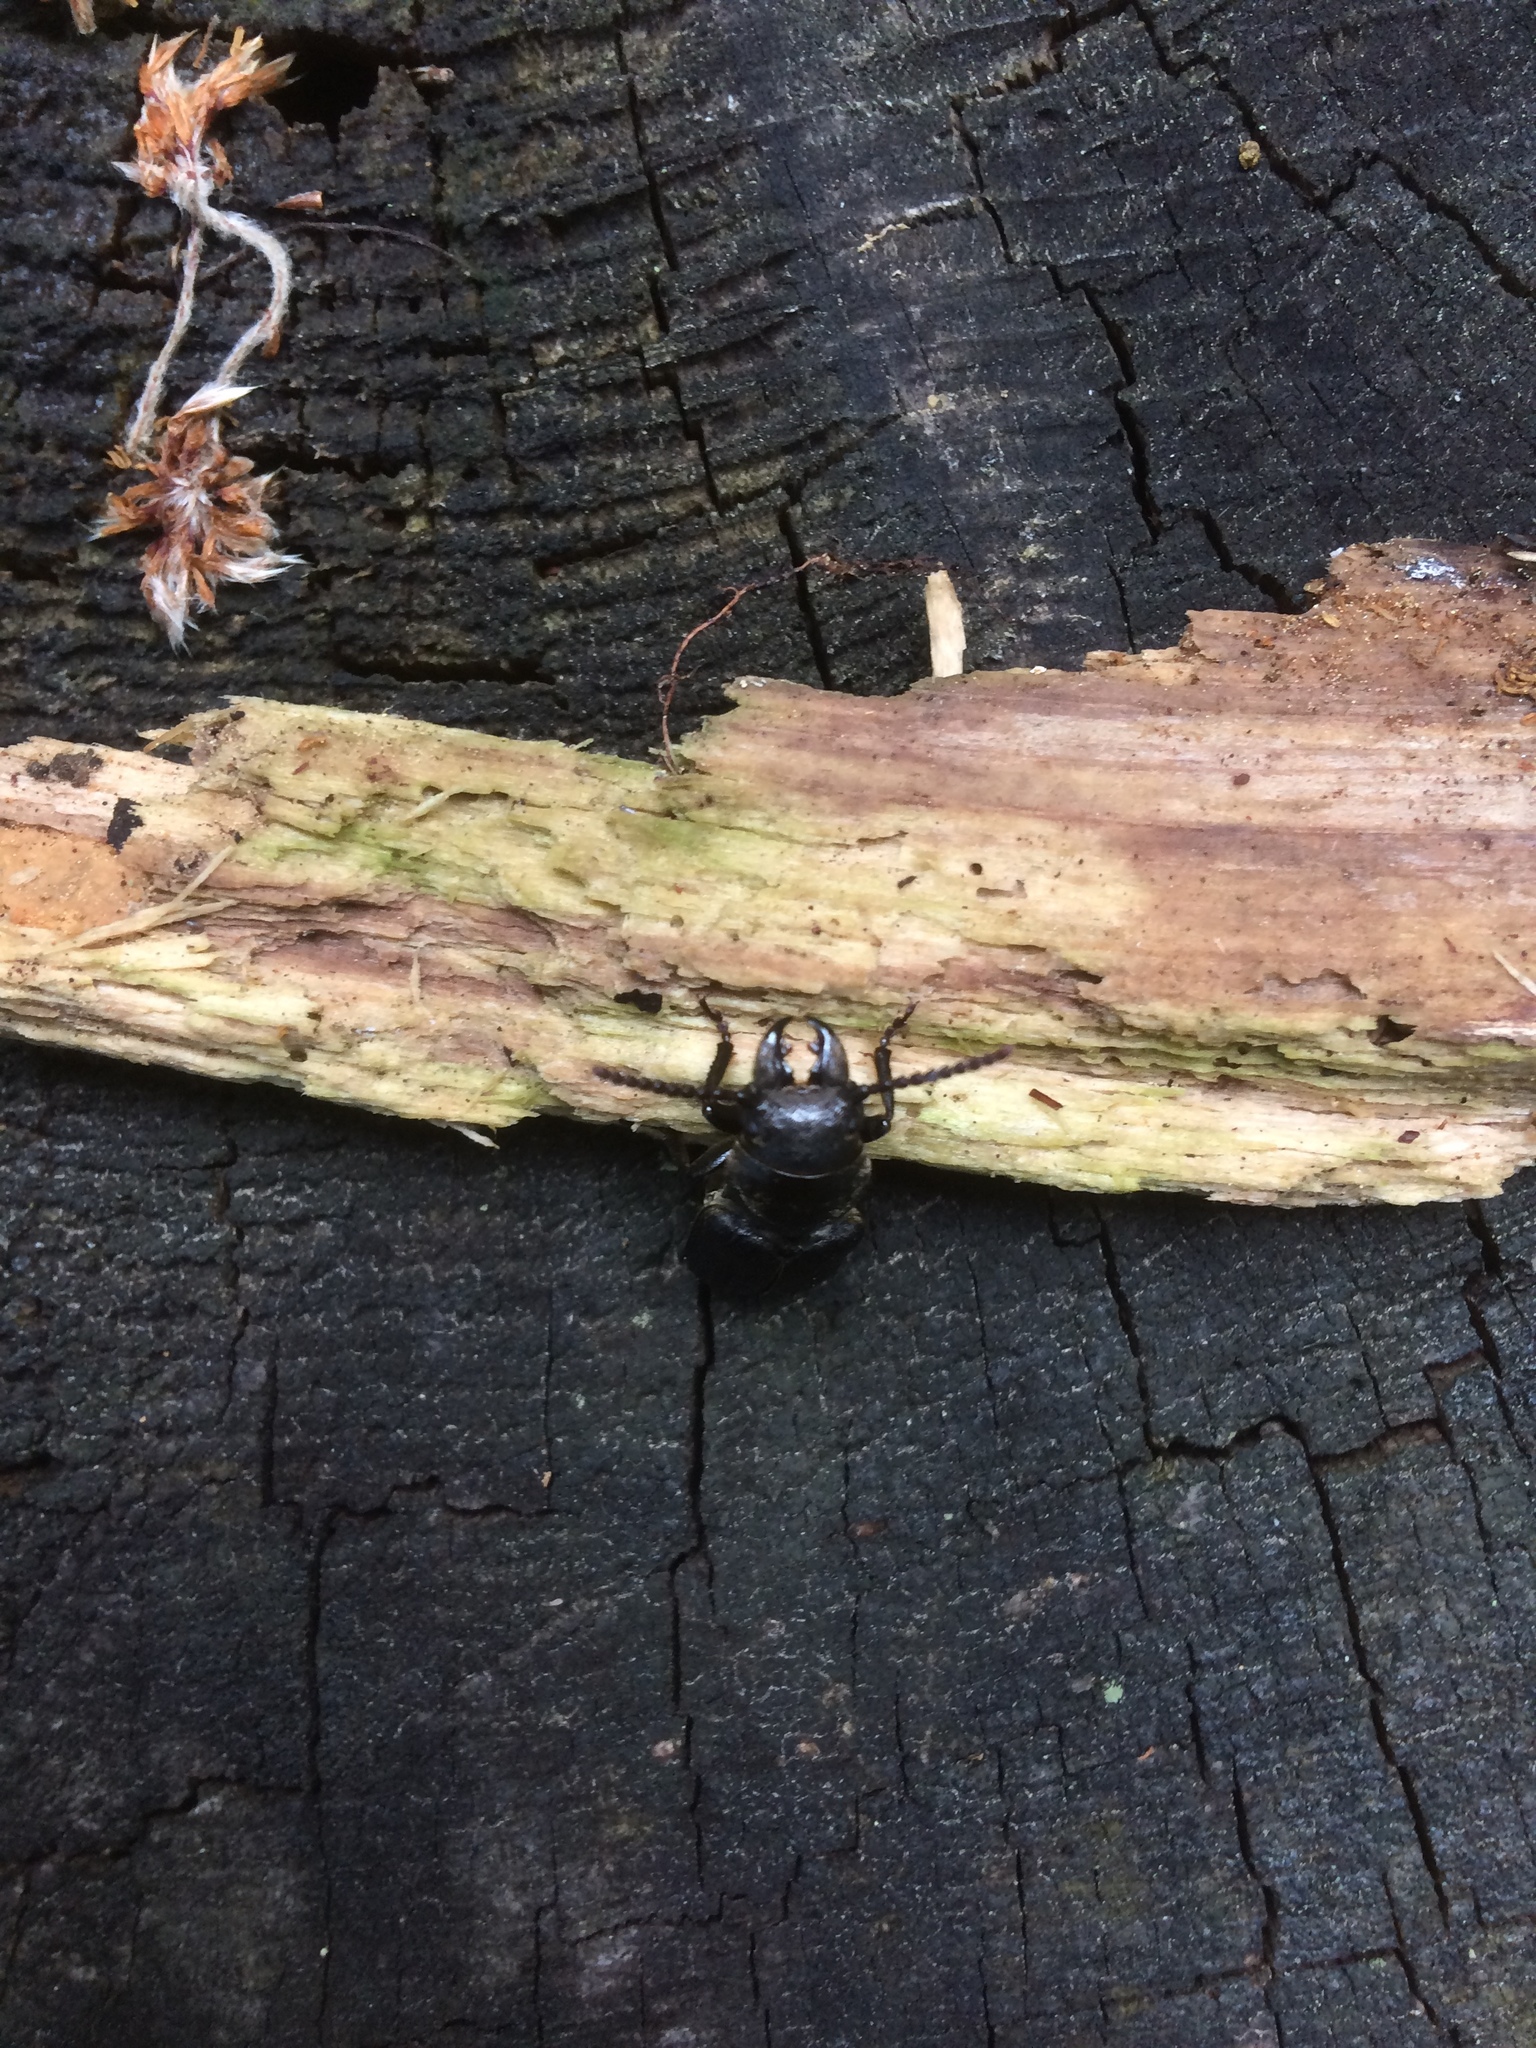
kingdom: Animalia
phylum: Arthropoda
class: Insecta
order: Coleoptera
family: Cerambycidae
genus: Spondylis
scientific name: Spondylis buprestoides
